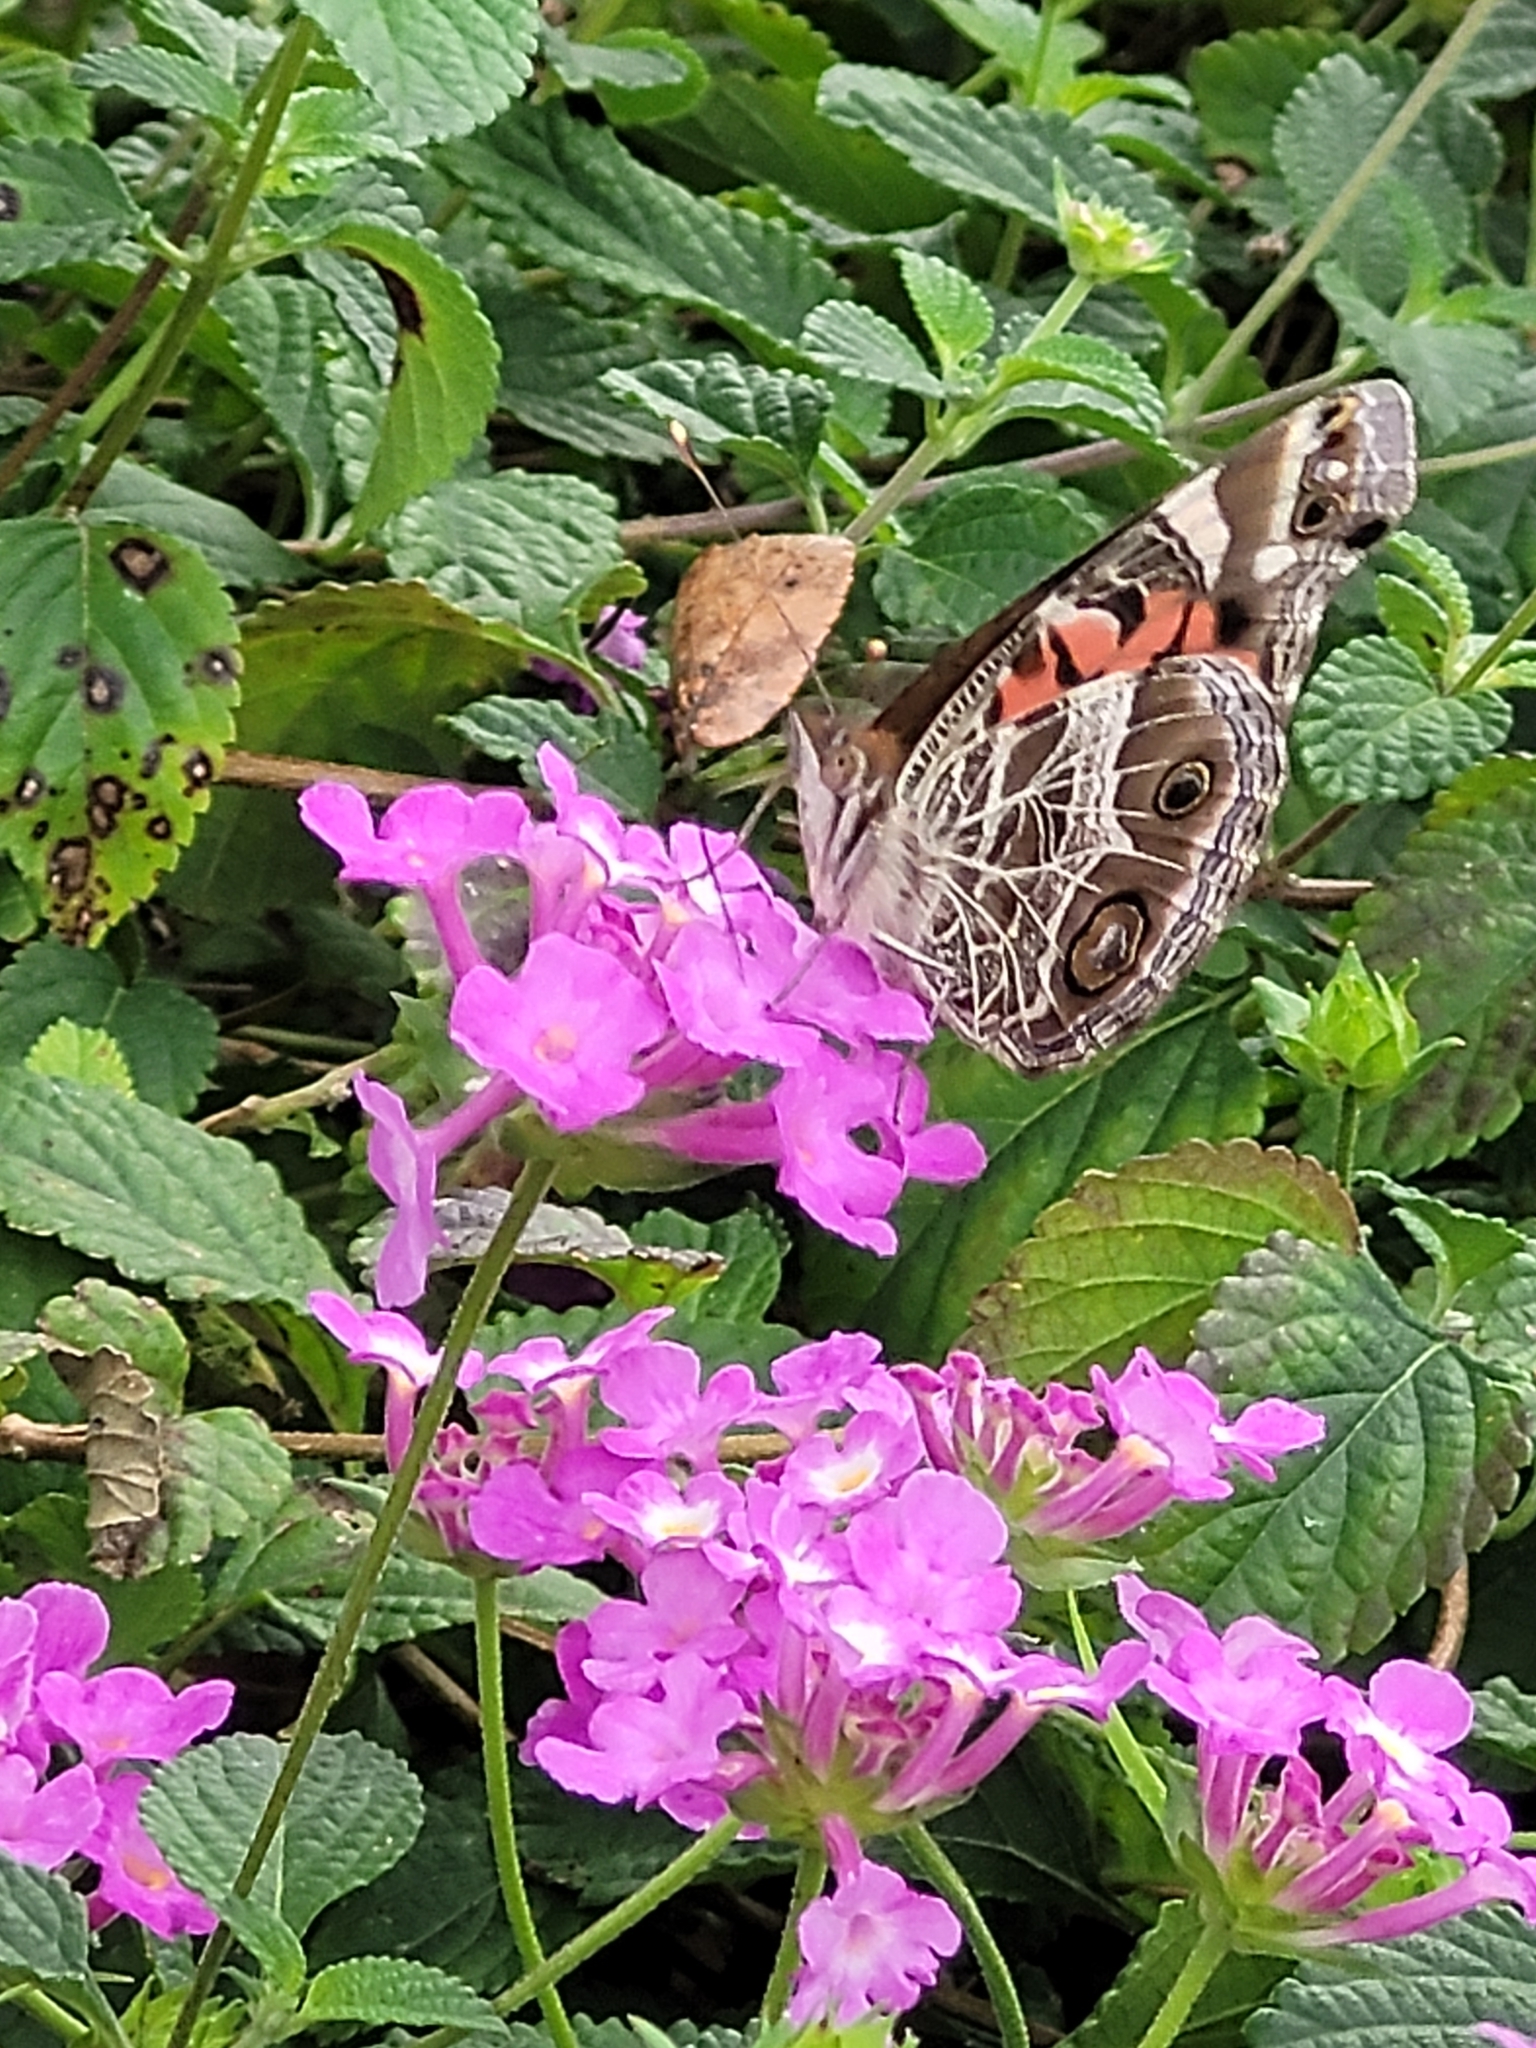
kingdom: Animalia
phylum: Arthropoda
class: Insecta
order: Lepidoptera
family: Nymphalidae
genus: Vanessa
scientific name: Vanessa virginiensis
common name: American lady
